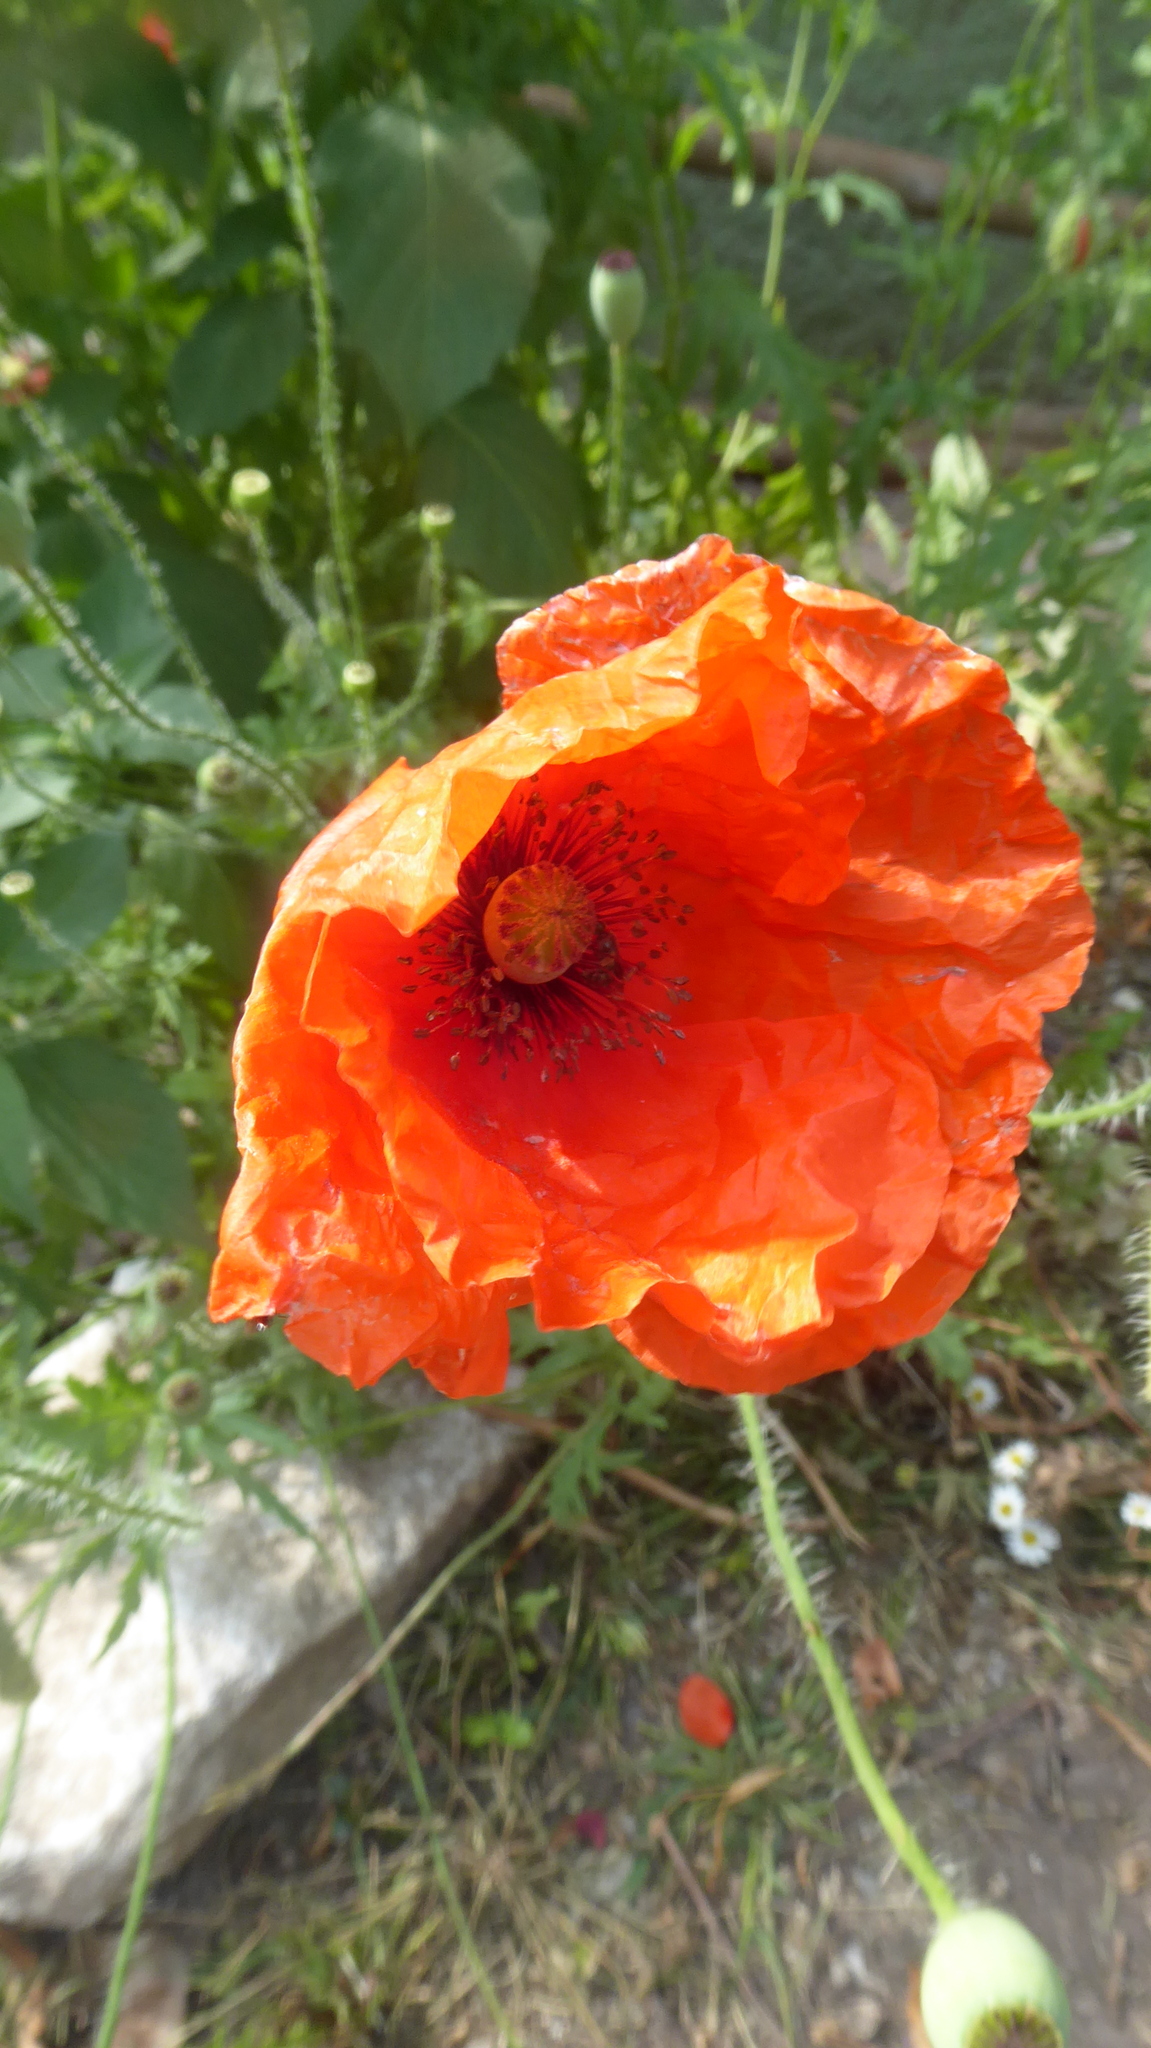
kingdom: Plantae
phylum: Tracheophyta
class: Magnoliopsida
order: Ranunculales
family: Papaveraceae
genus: Papaver
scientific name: Papaver rhoeas
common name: Corn poppy
